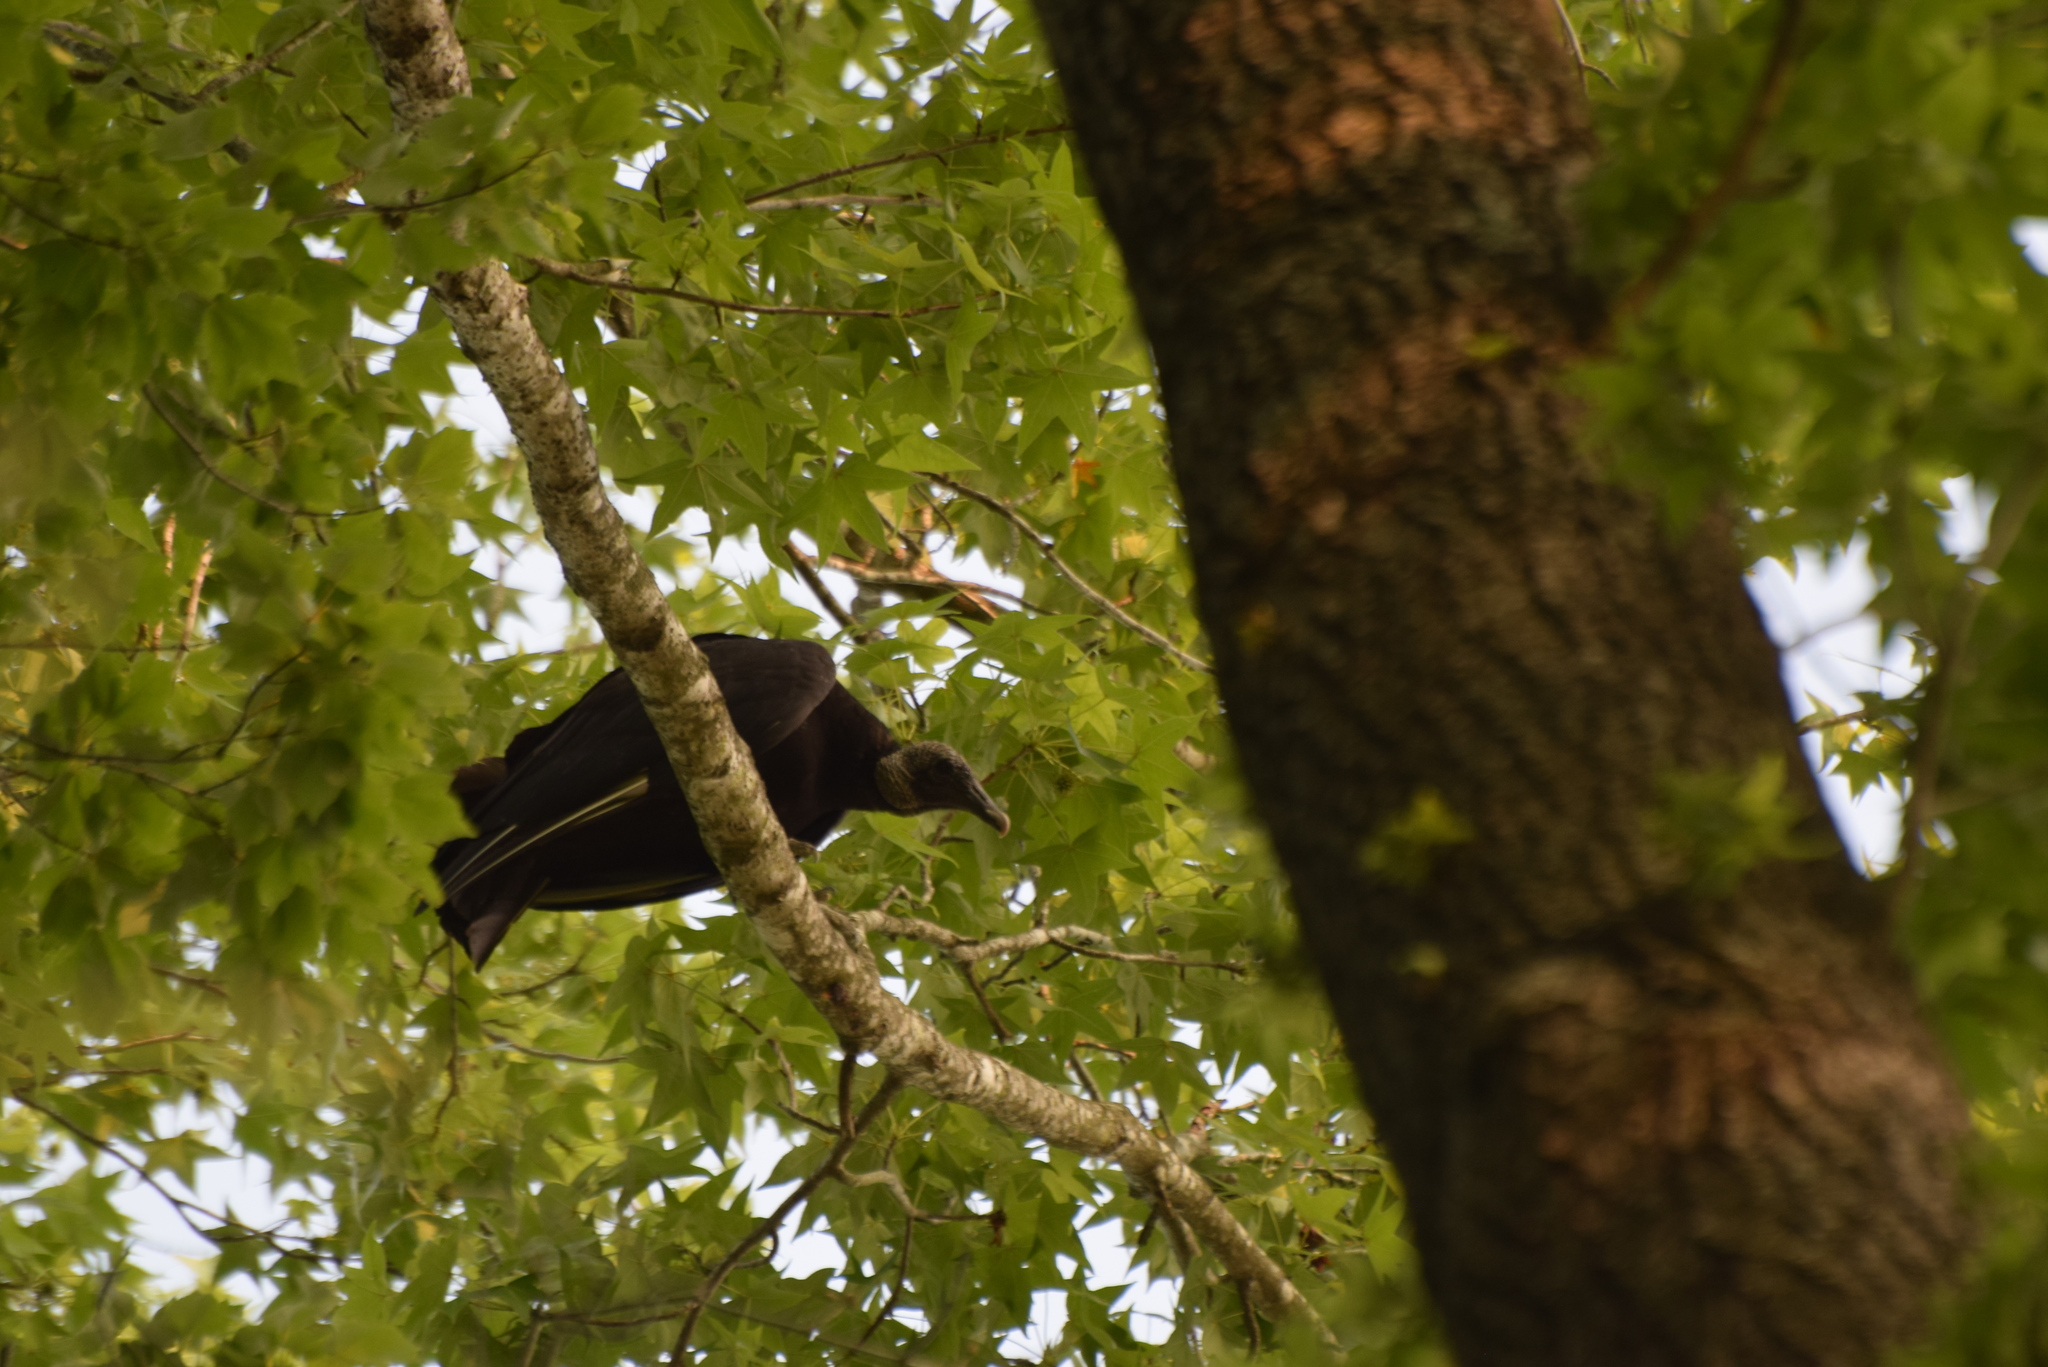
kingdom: Animalia
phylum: Chordata
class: Aves
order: Accipitriformes
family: Cathartidae
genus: Coragyps
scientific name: Coragyps atratus
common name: Black vulture
